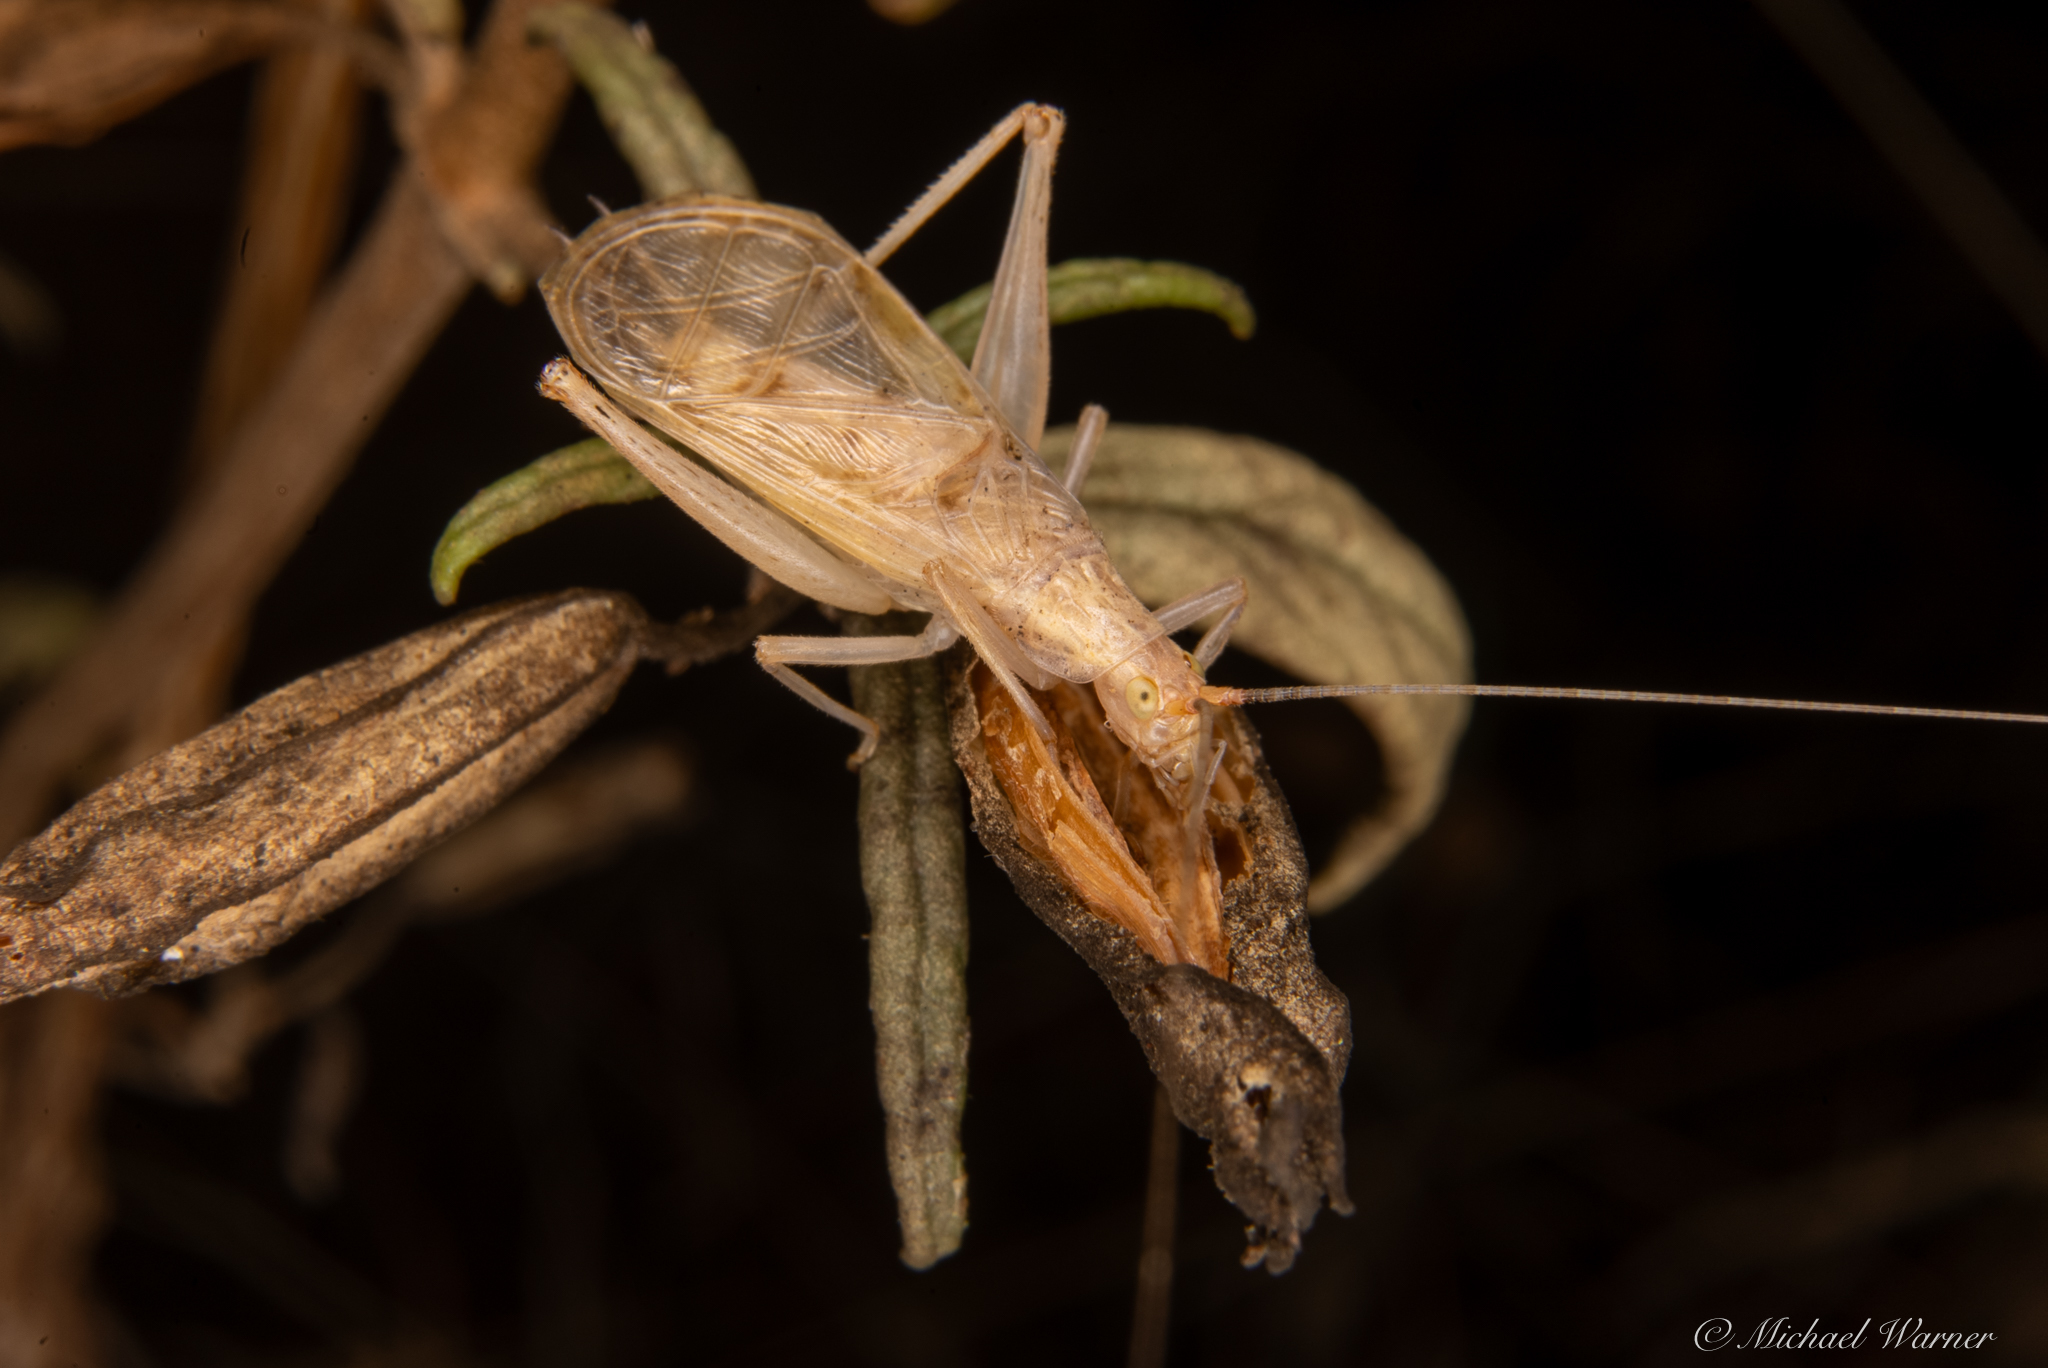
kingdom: Animalia
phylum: Arthropoda
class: Insecta
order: Orthoptera
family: Gryllidae
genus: Oecanthus
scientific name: Oecanthus californicus
